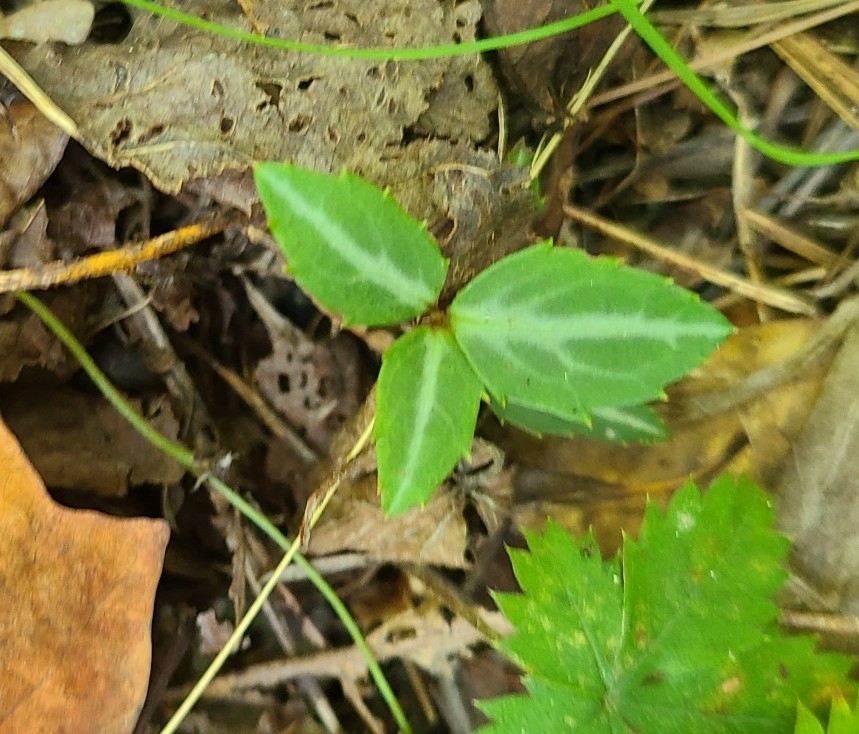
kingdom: Plantae
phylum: Tracheophyta
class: Magnoliopsida
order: Ericales
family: Ericaceae
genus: Chimaphila
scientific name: Chimaphila maculata
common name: Spotted pipsissewa
